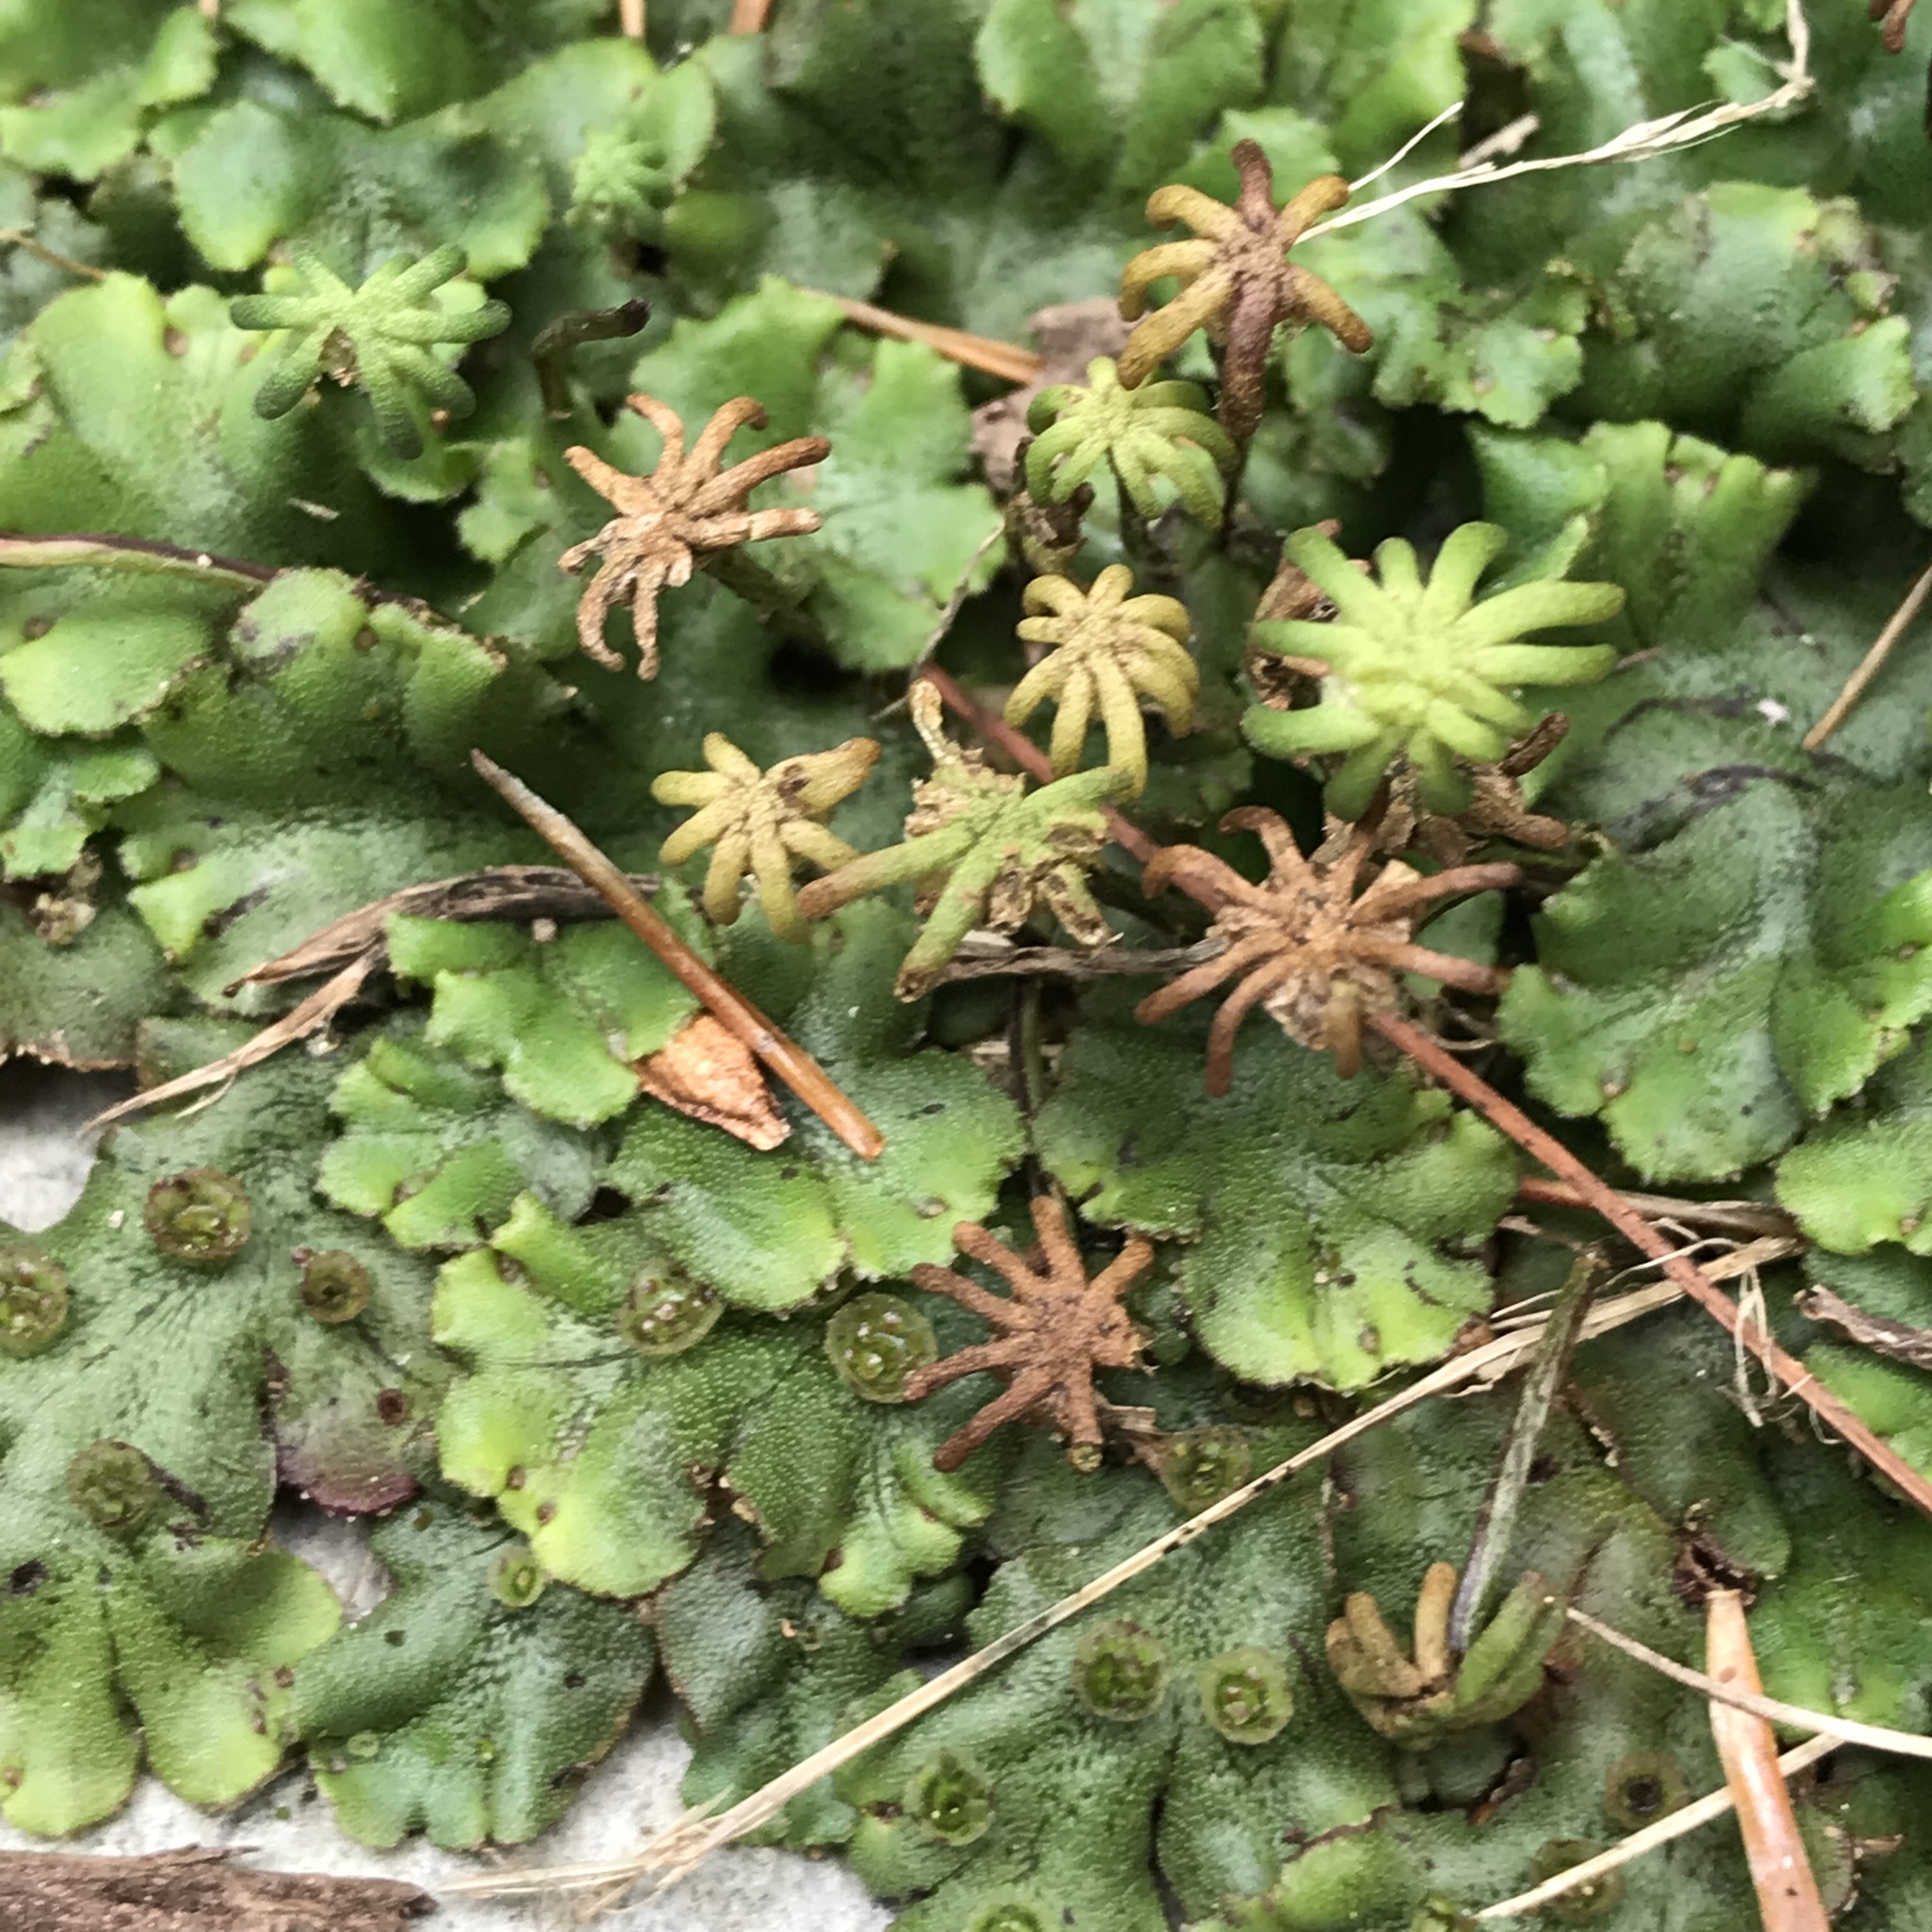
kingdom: Plantae
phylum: Marchantiophyta
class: Marchantiopsida
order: Marchantiales
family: Marchantiaceae
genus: Marchantia
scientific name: Marchantia polymorpha
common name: Common liverwort
